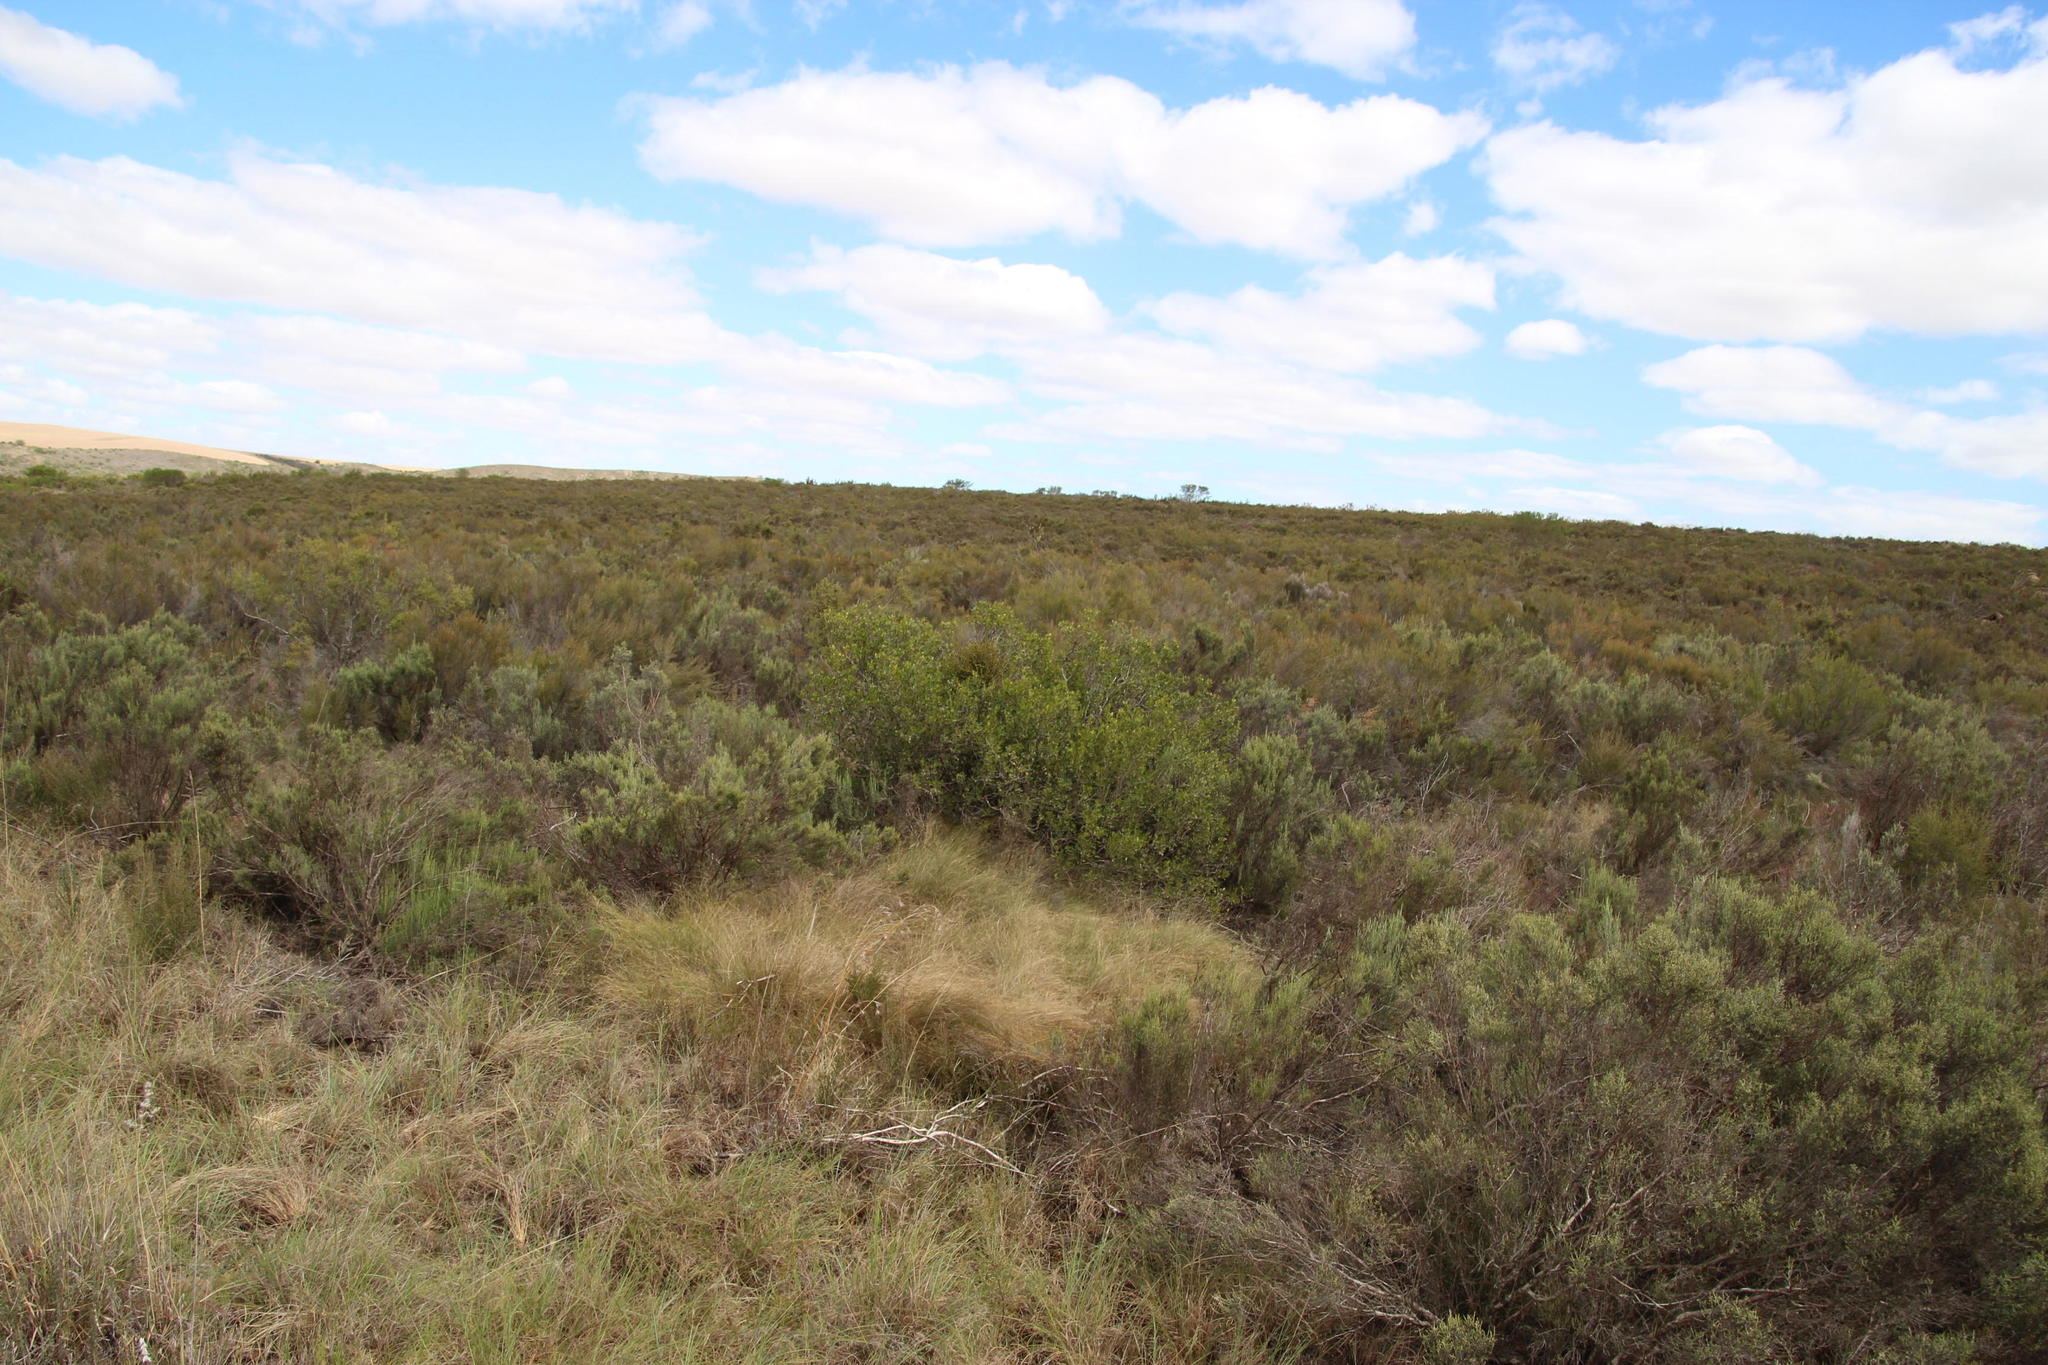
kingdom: Plantae
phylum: Tracheophyta
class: Magnoliopsida
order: Sapindales
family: Anacardiaceae
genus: Searsia
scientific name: Searsia pallens
